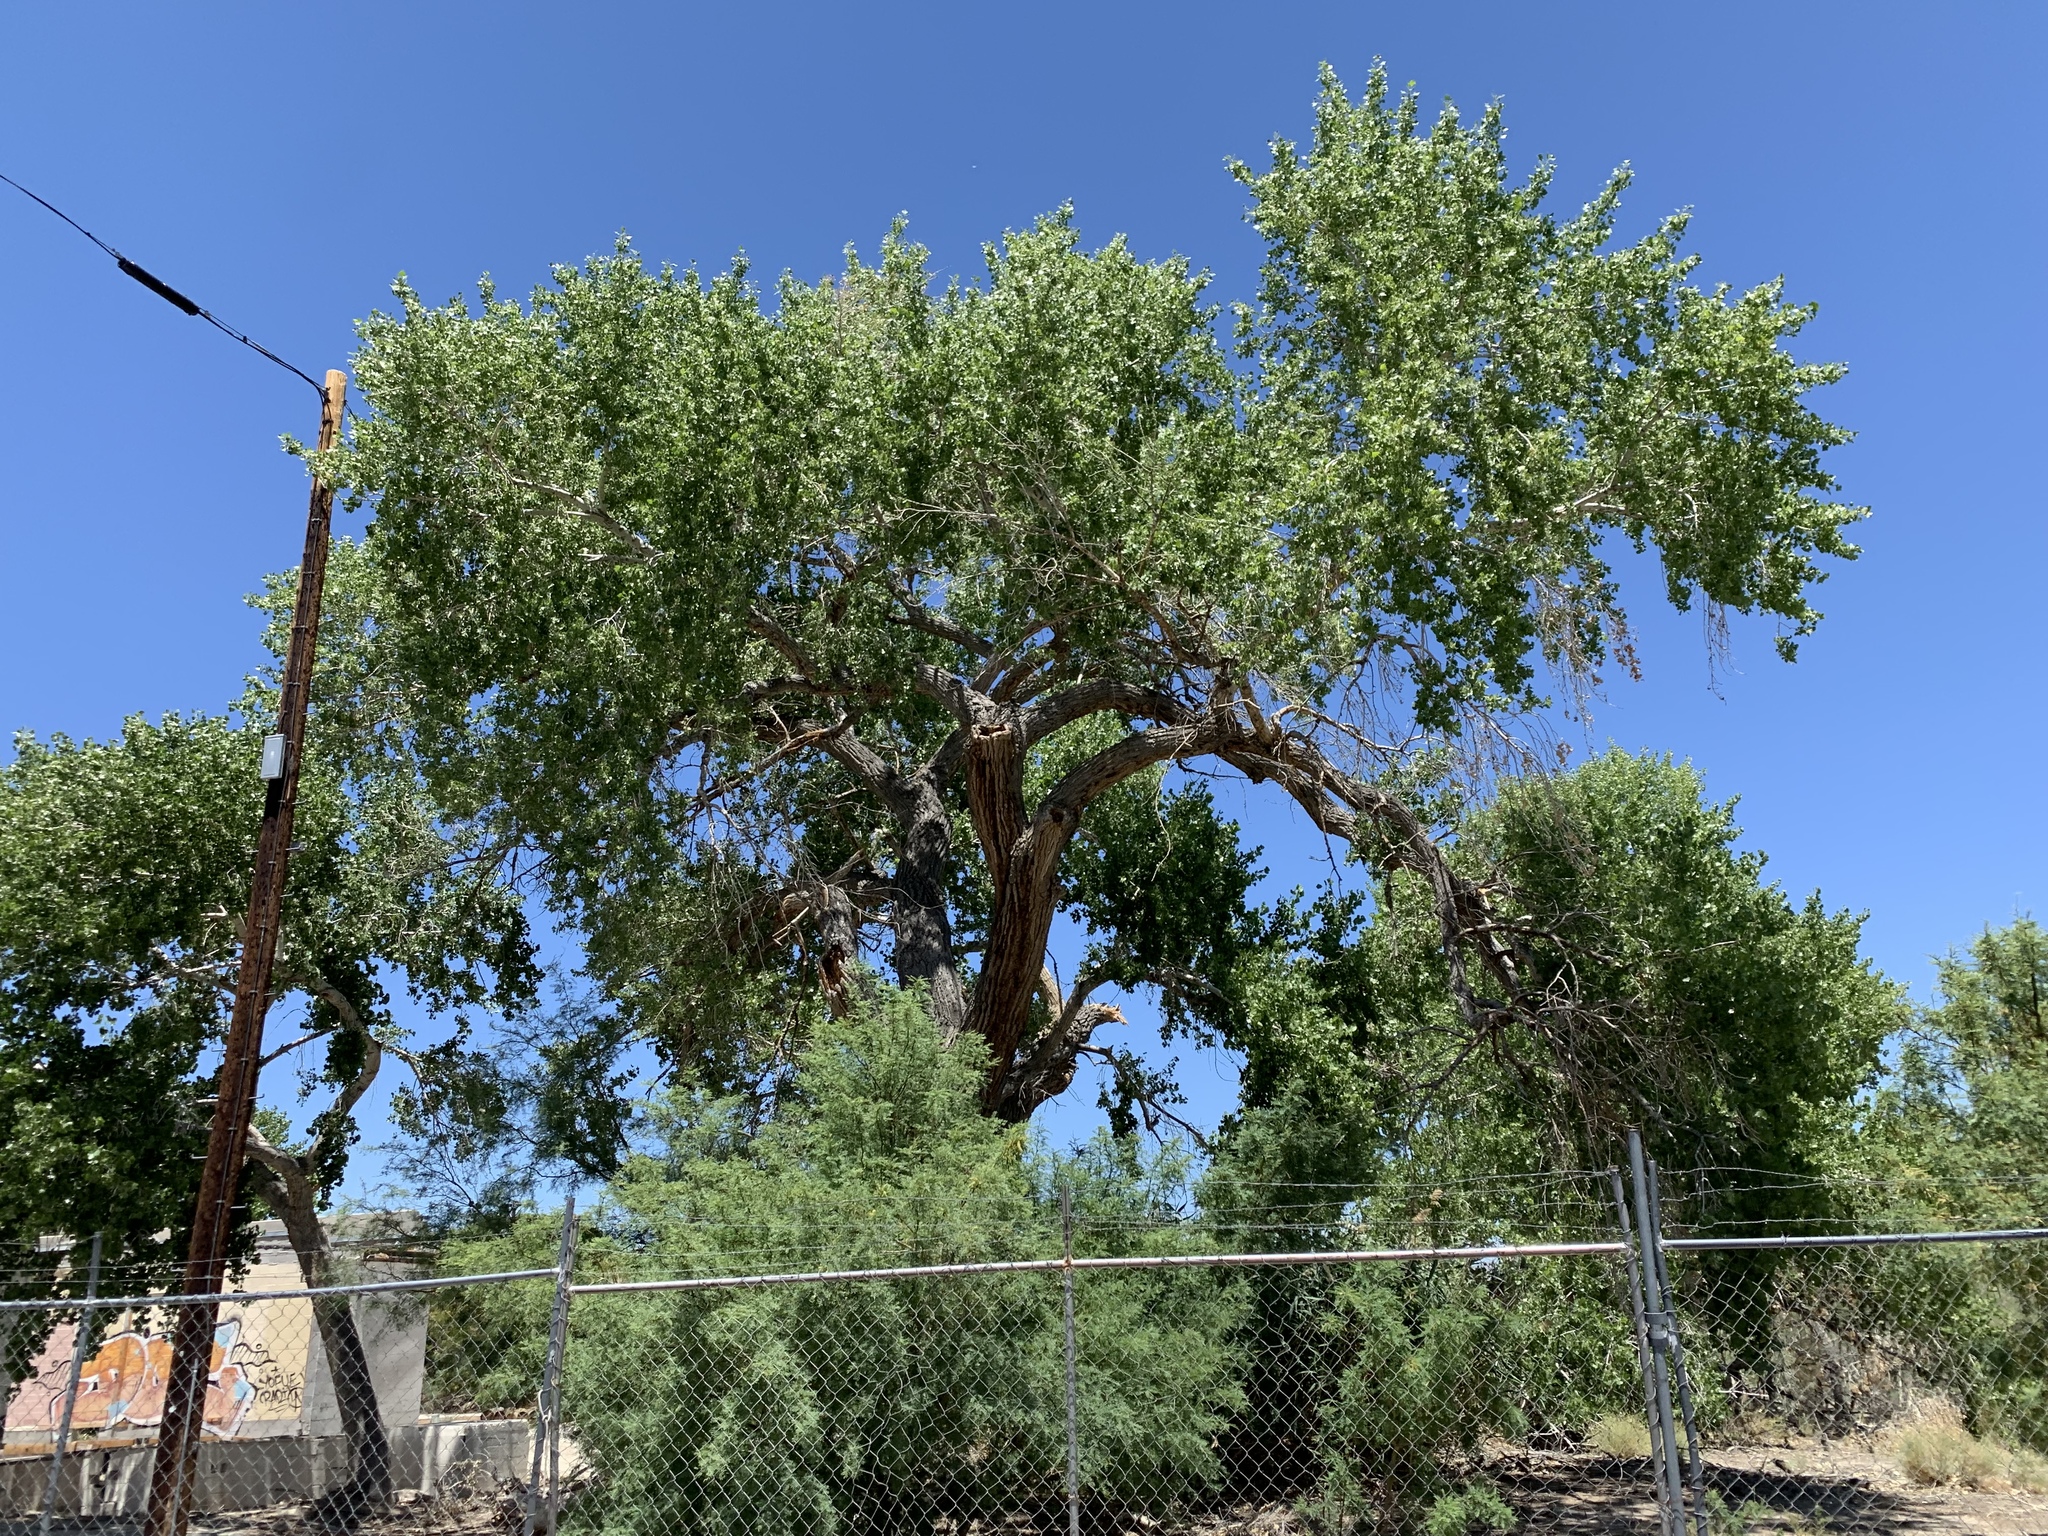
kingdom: Plantae
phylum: Tracheophyta
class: Magnoliopsida
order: Malpighiales
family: Salicaceae
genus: Populus
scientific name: Populus fremontii
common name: Fremont's cottonwood
